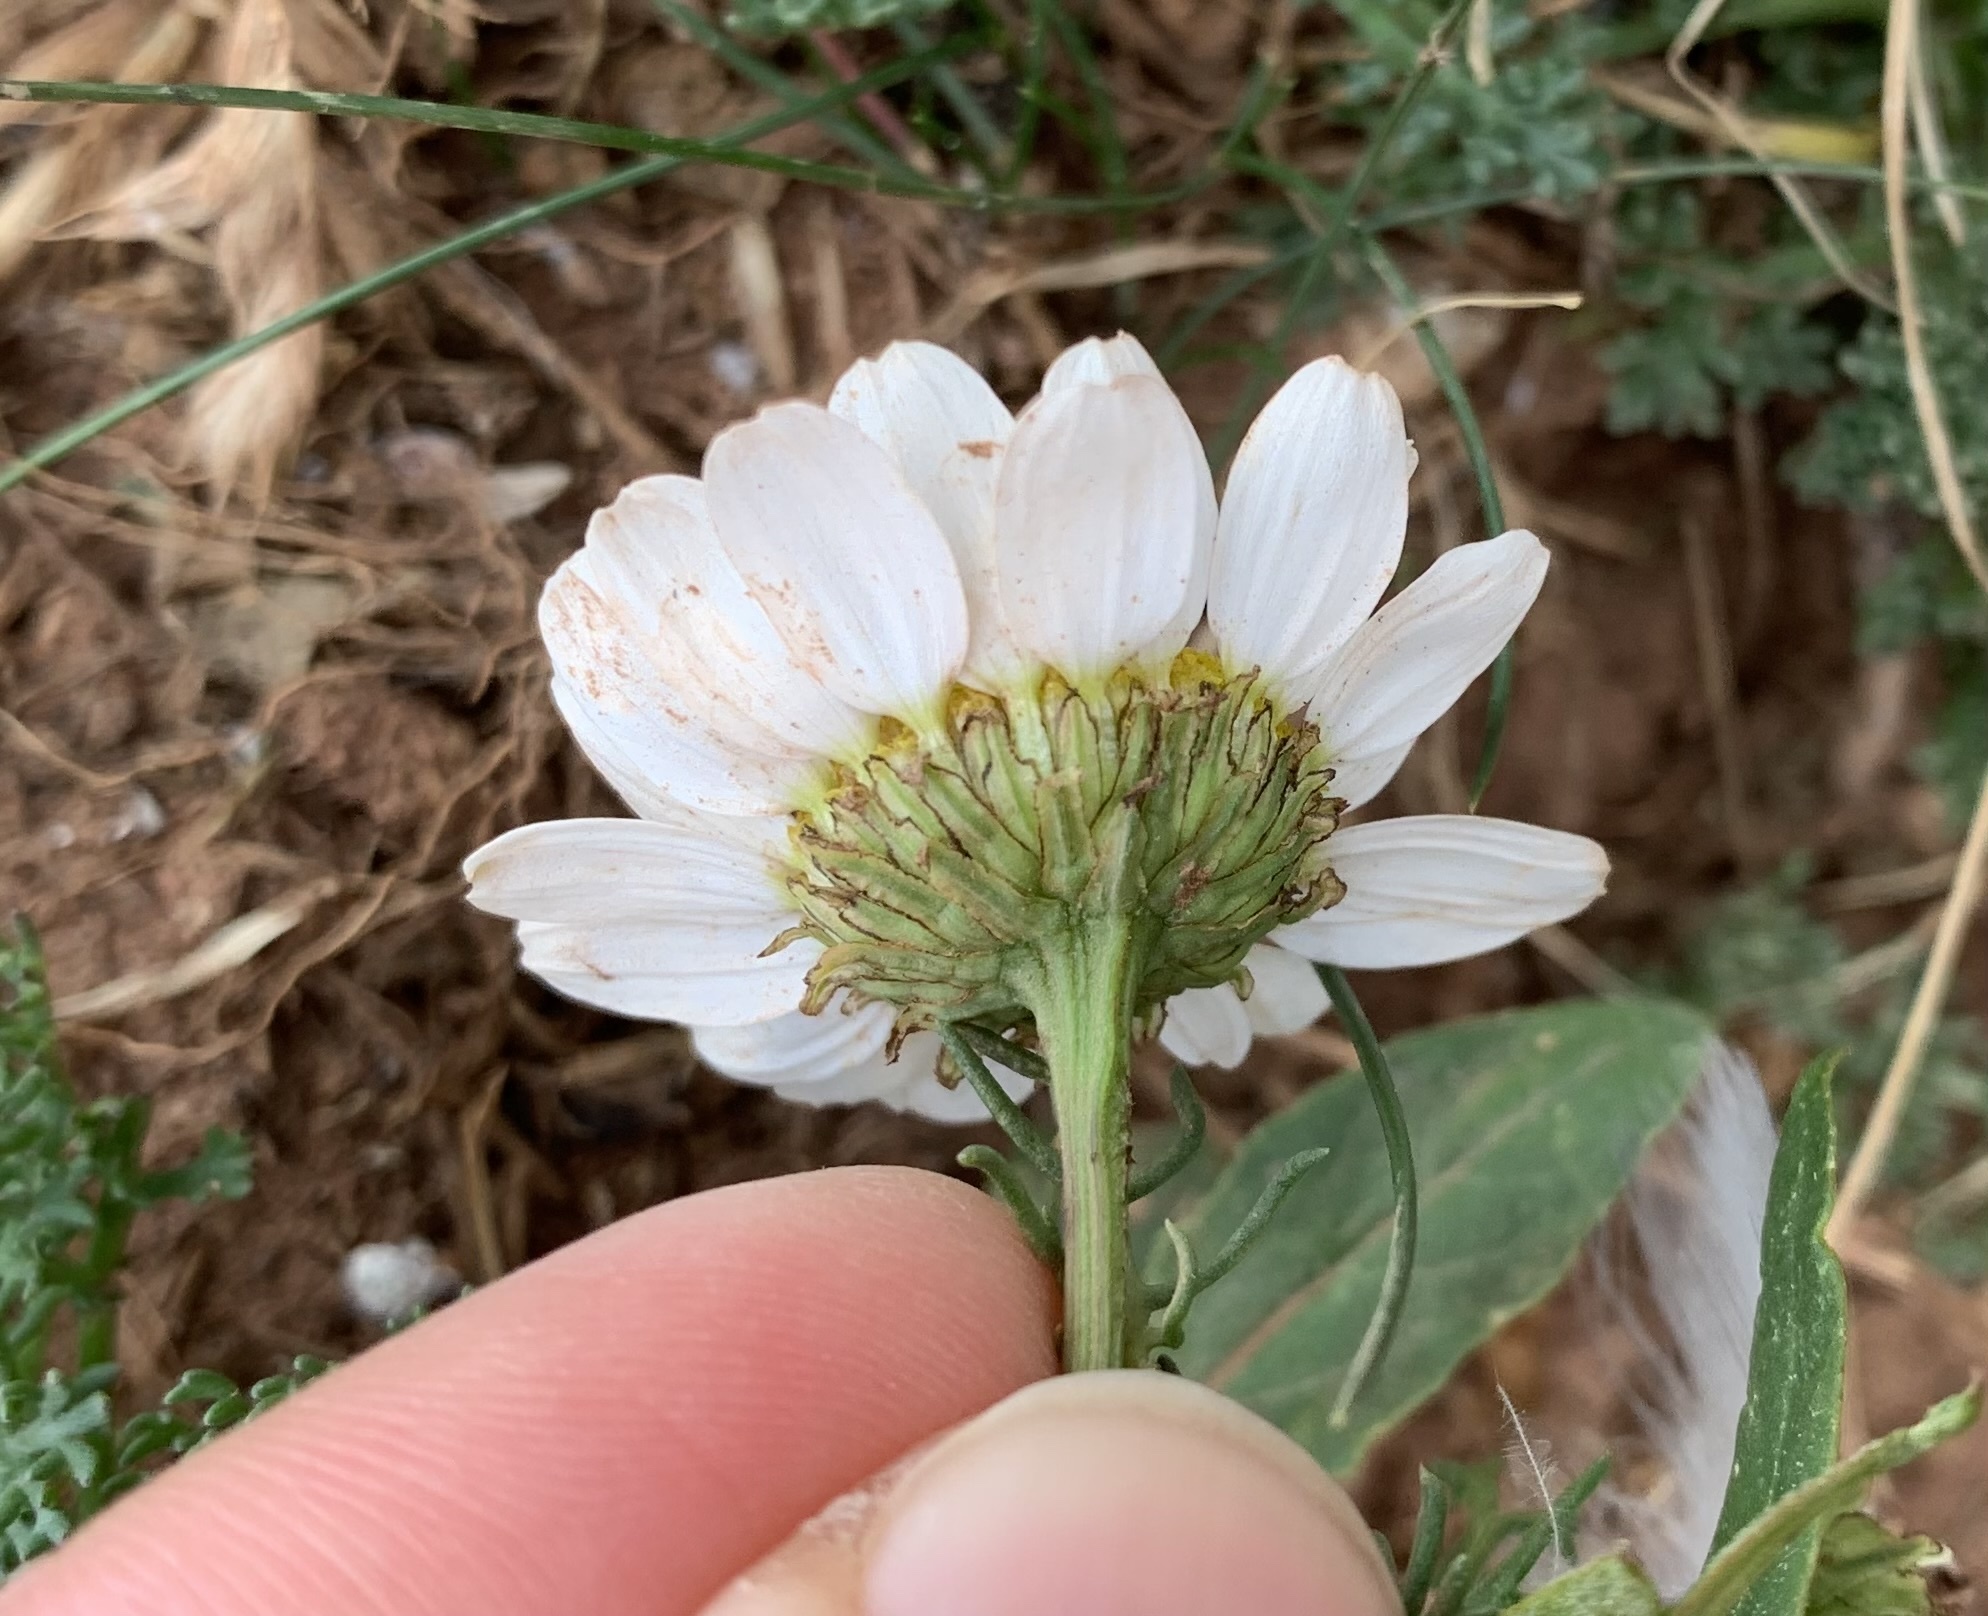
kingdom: Plantae
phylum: Tracheophyta
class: Magnoliopsida
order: Asterales
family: Asteraceae
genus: Tripleurospermum
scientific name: Tripleurospermum maritimum
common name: Sea mayweed
